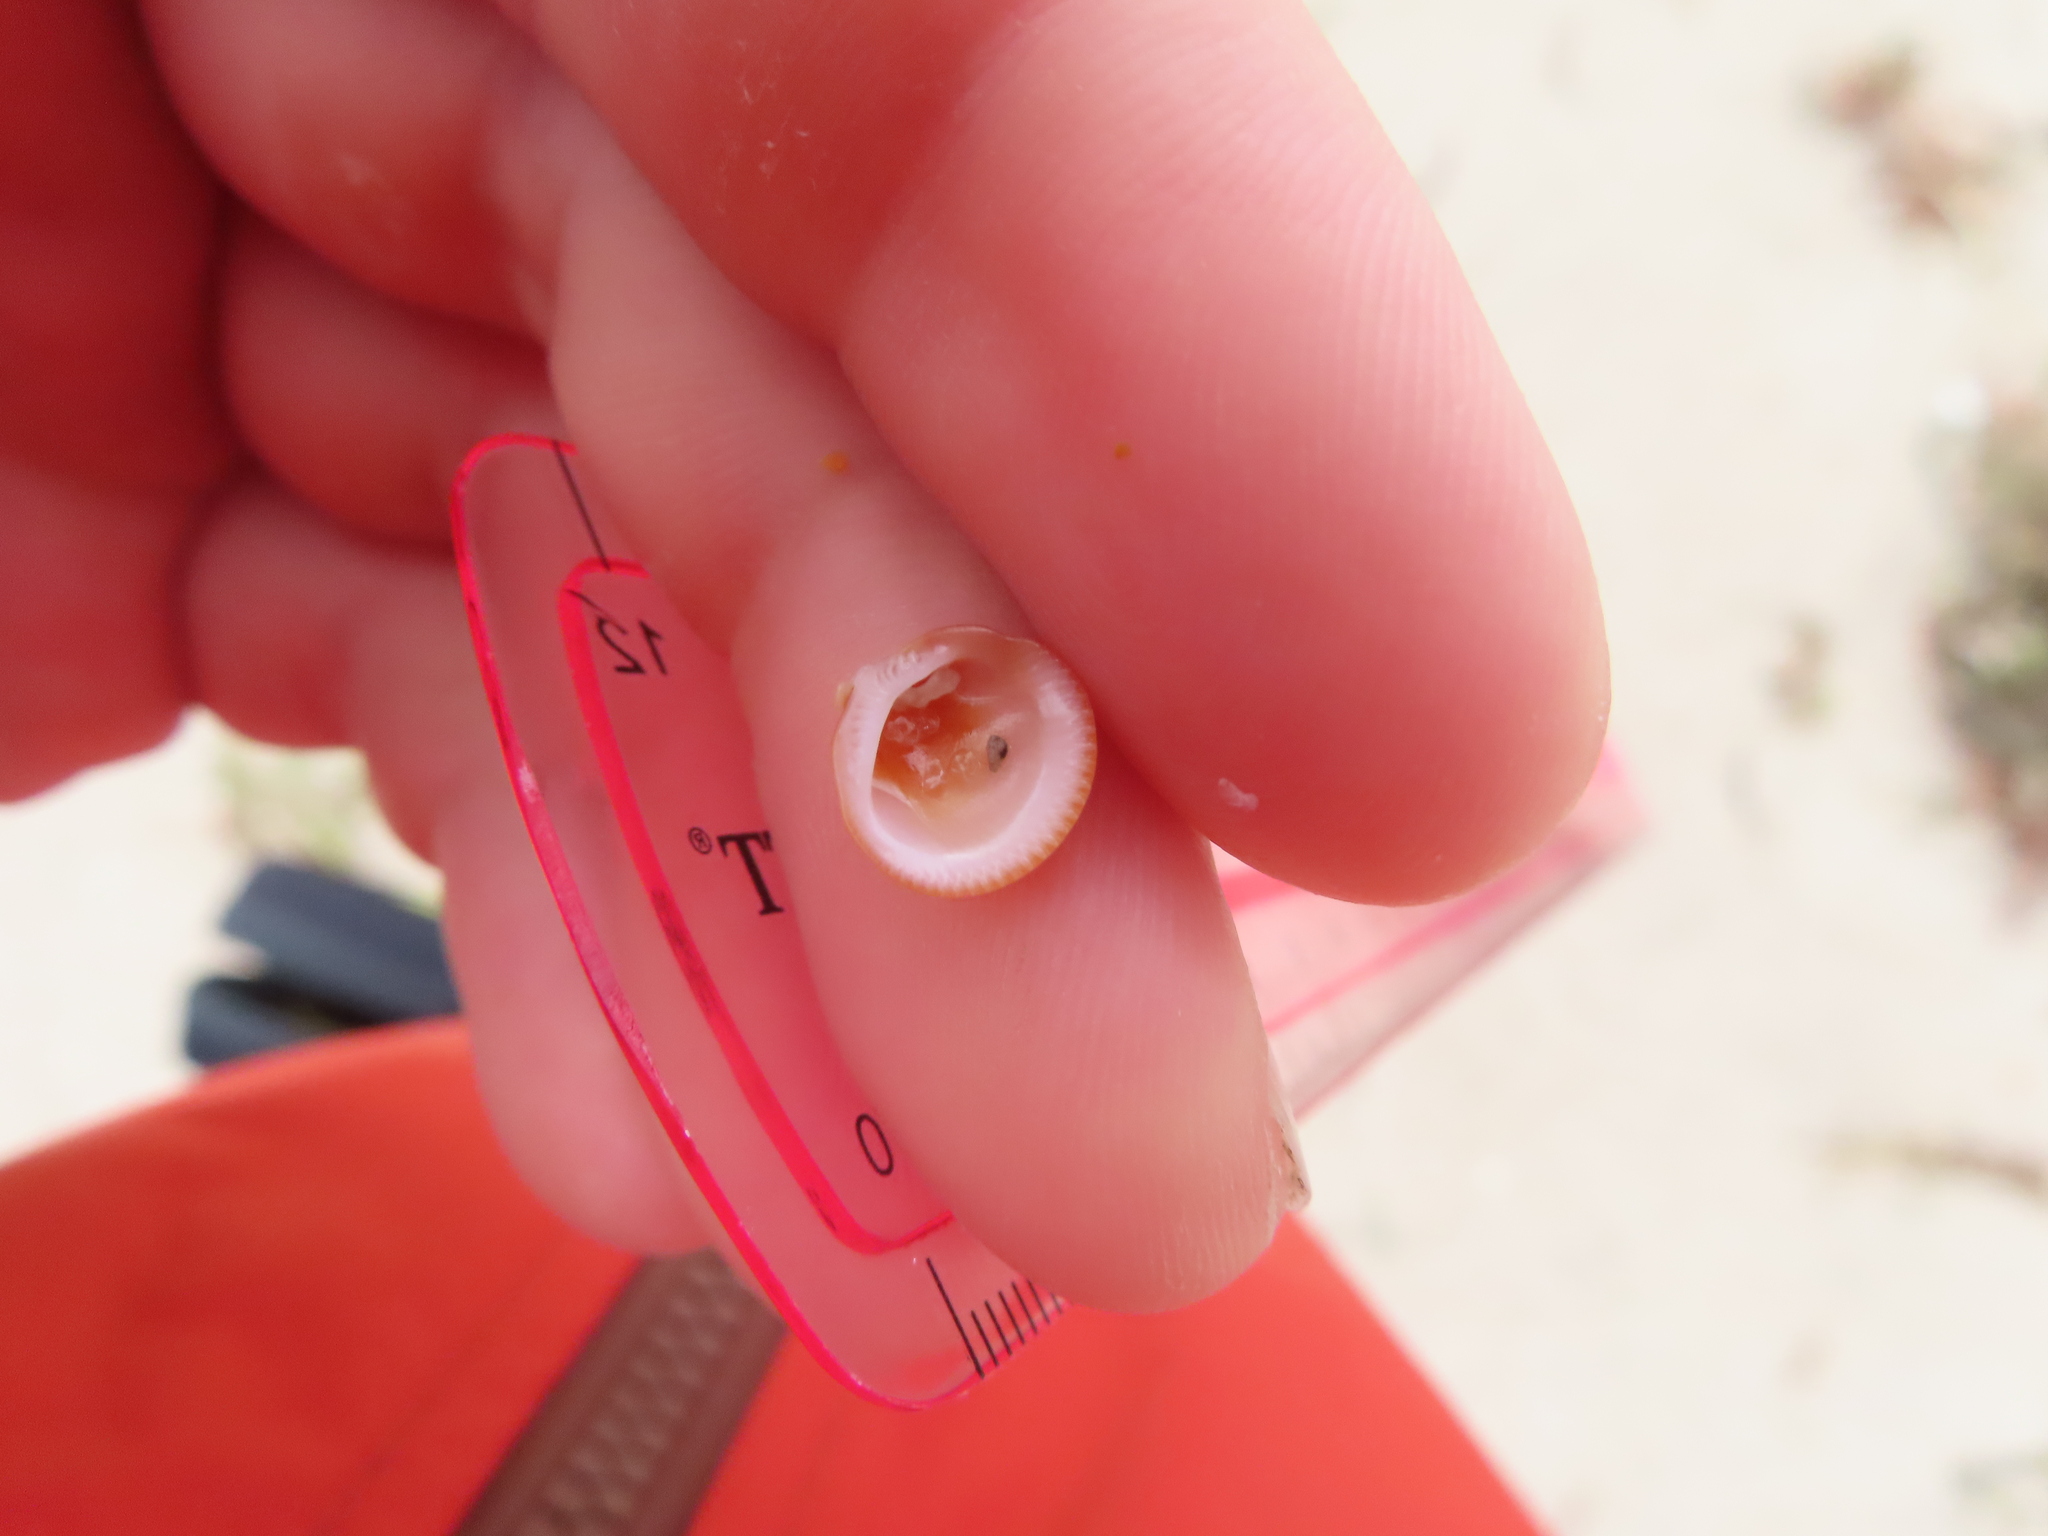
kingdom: Animalia
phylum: Mollusca
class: Bivalvia
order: Arcida
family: Glycymerididae
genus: Glycymeris
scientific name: Glycymeris spectralis
